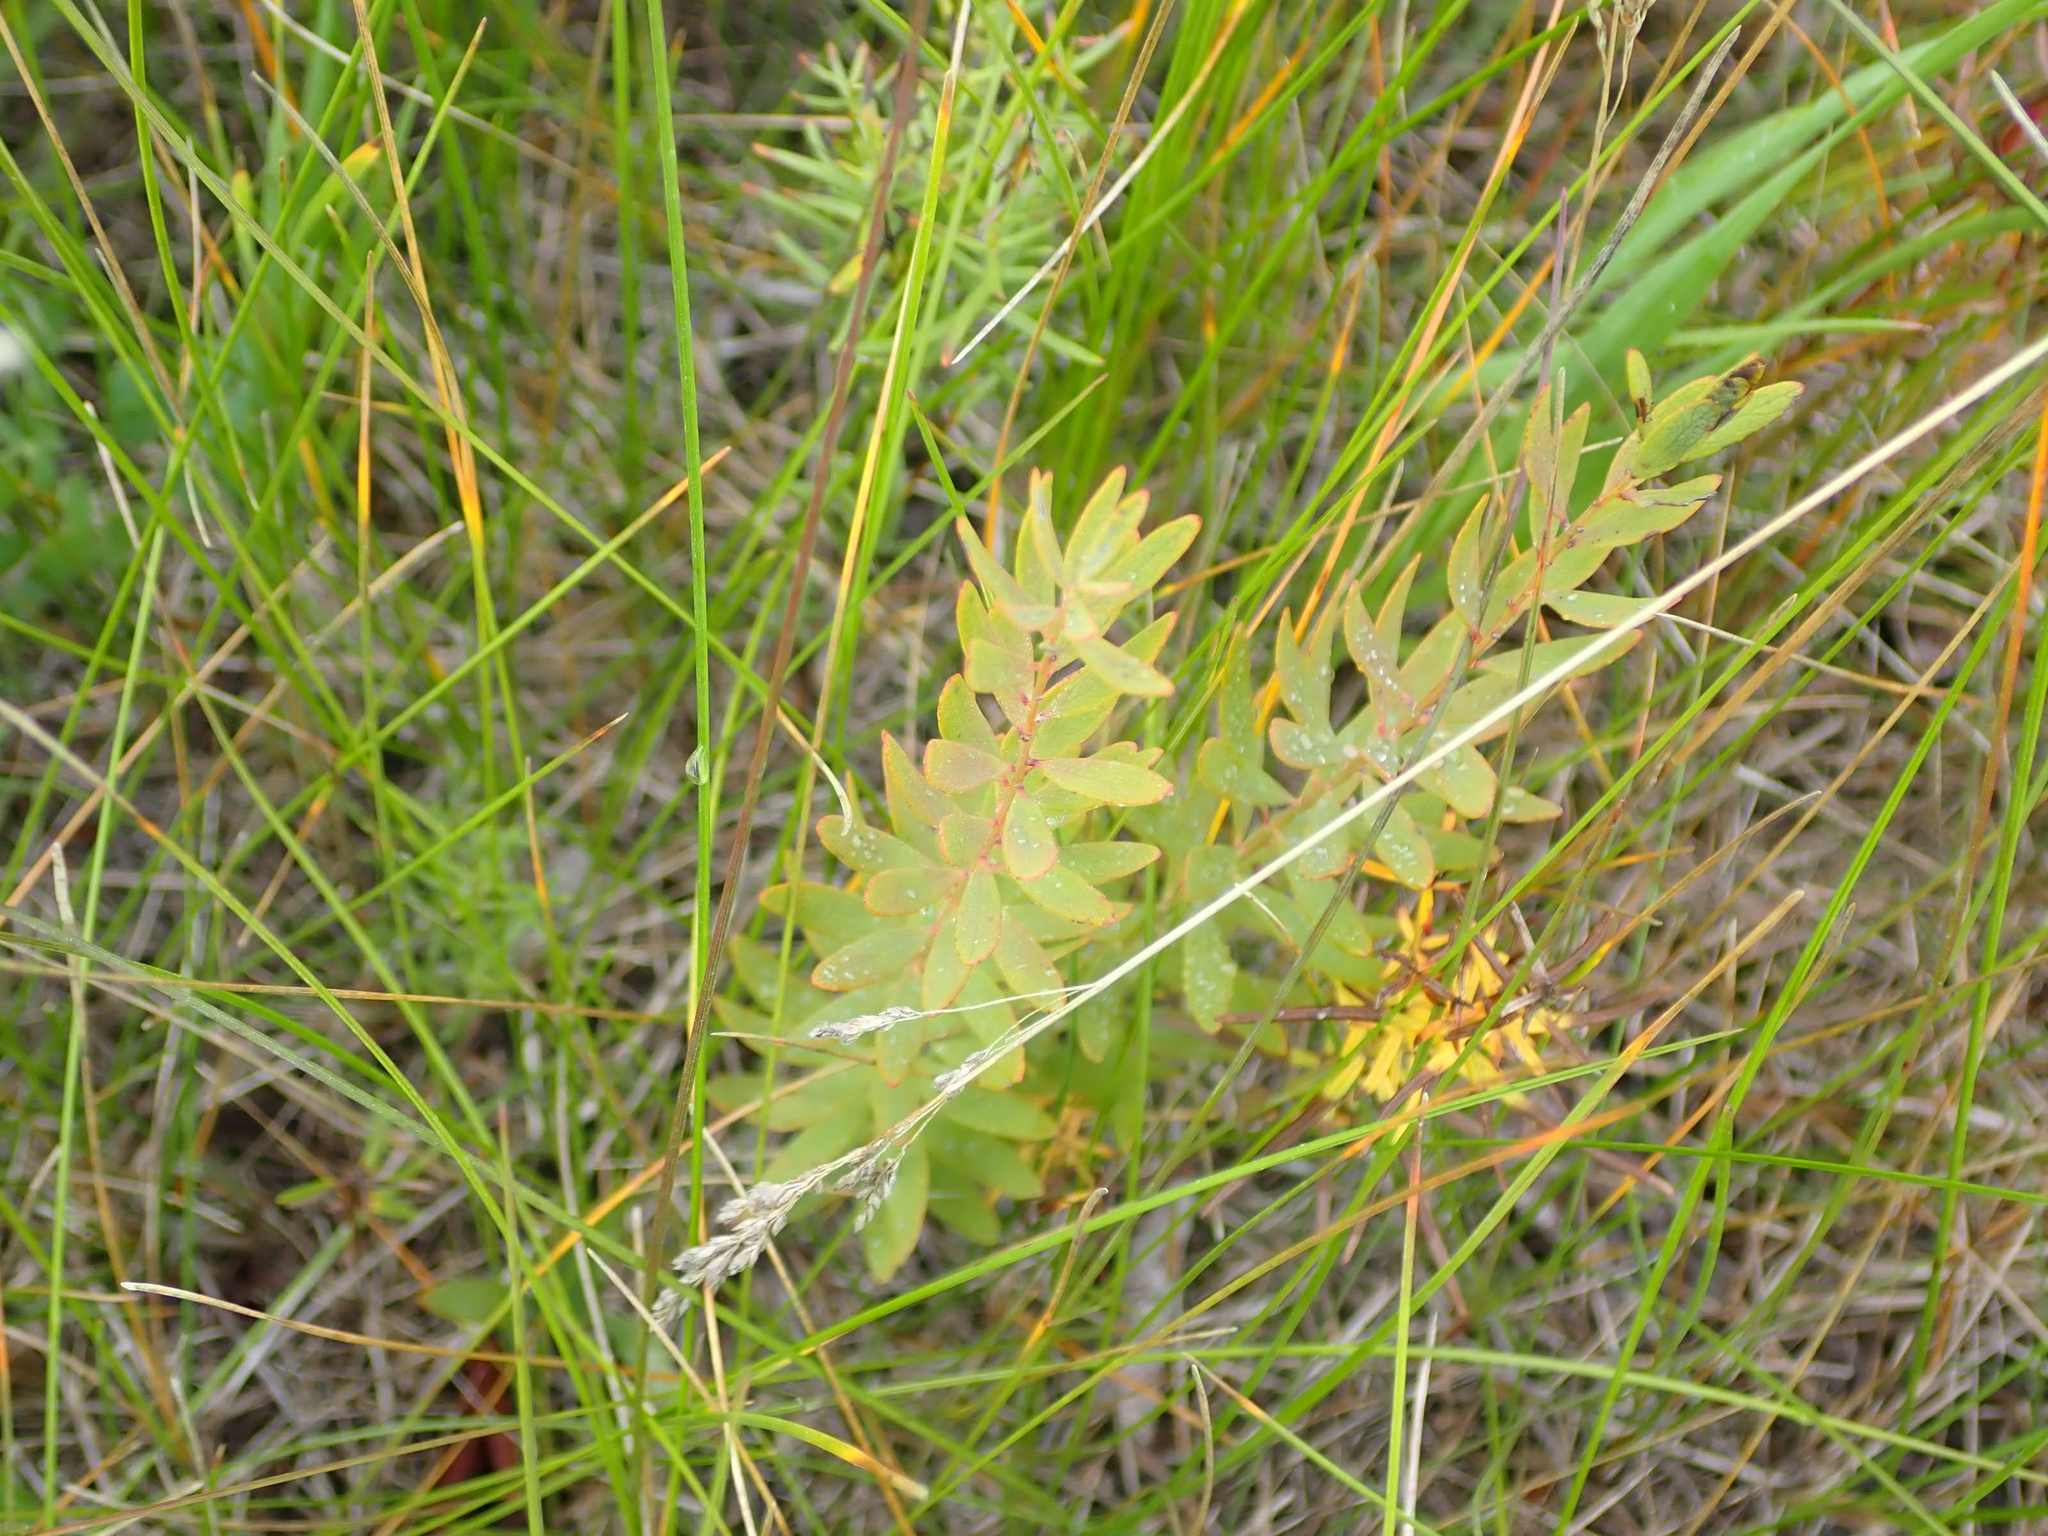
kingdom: Plantae
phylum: Tracheophyta
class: Magnoliopsida
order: Santalales
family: Comandraceae
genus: Comandra
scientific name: Comandra umbellata
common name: Bastard toadflax
